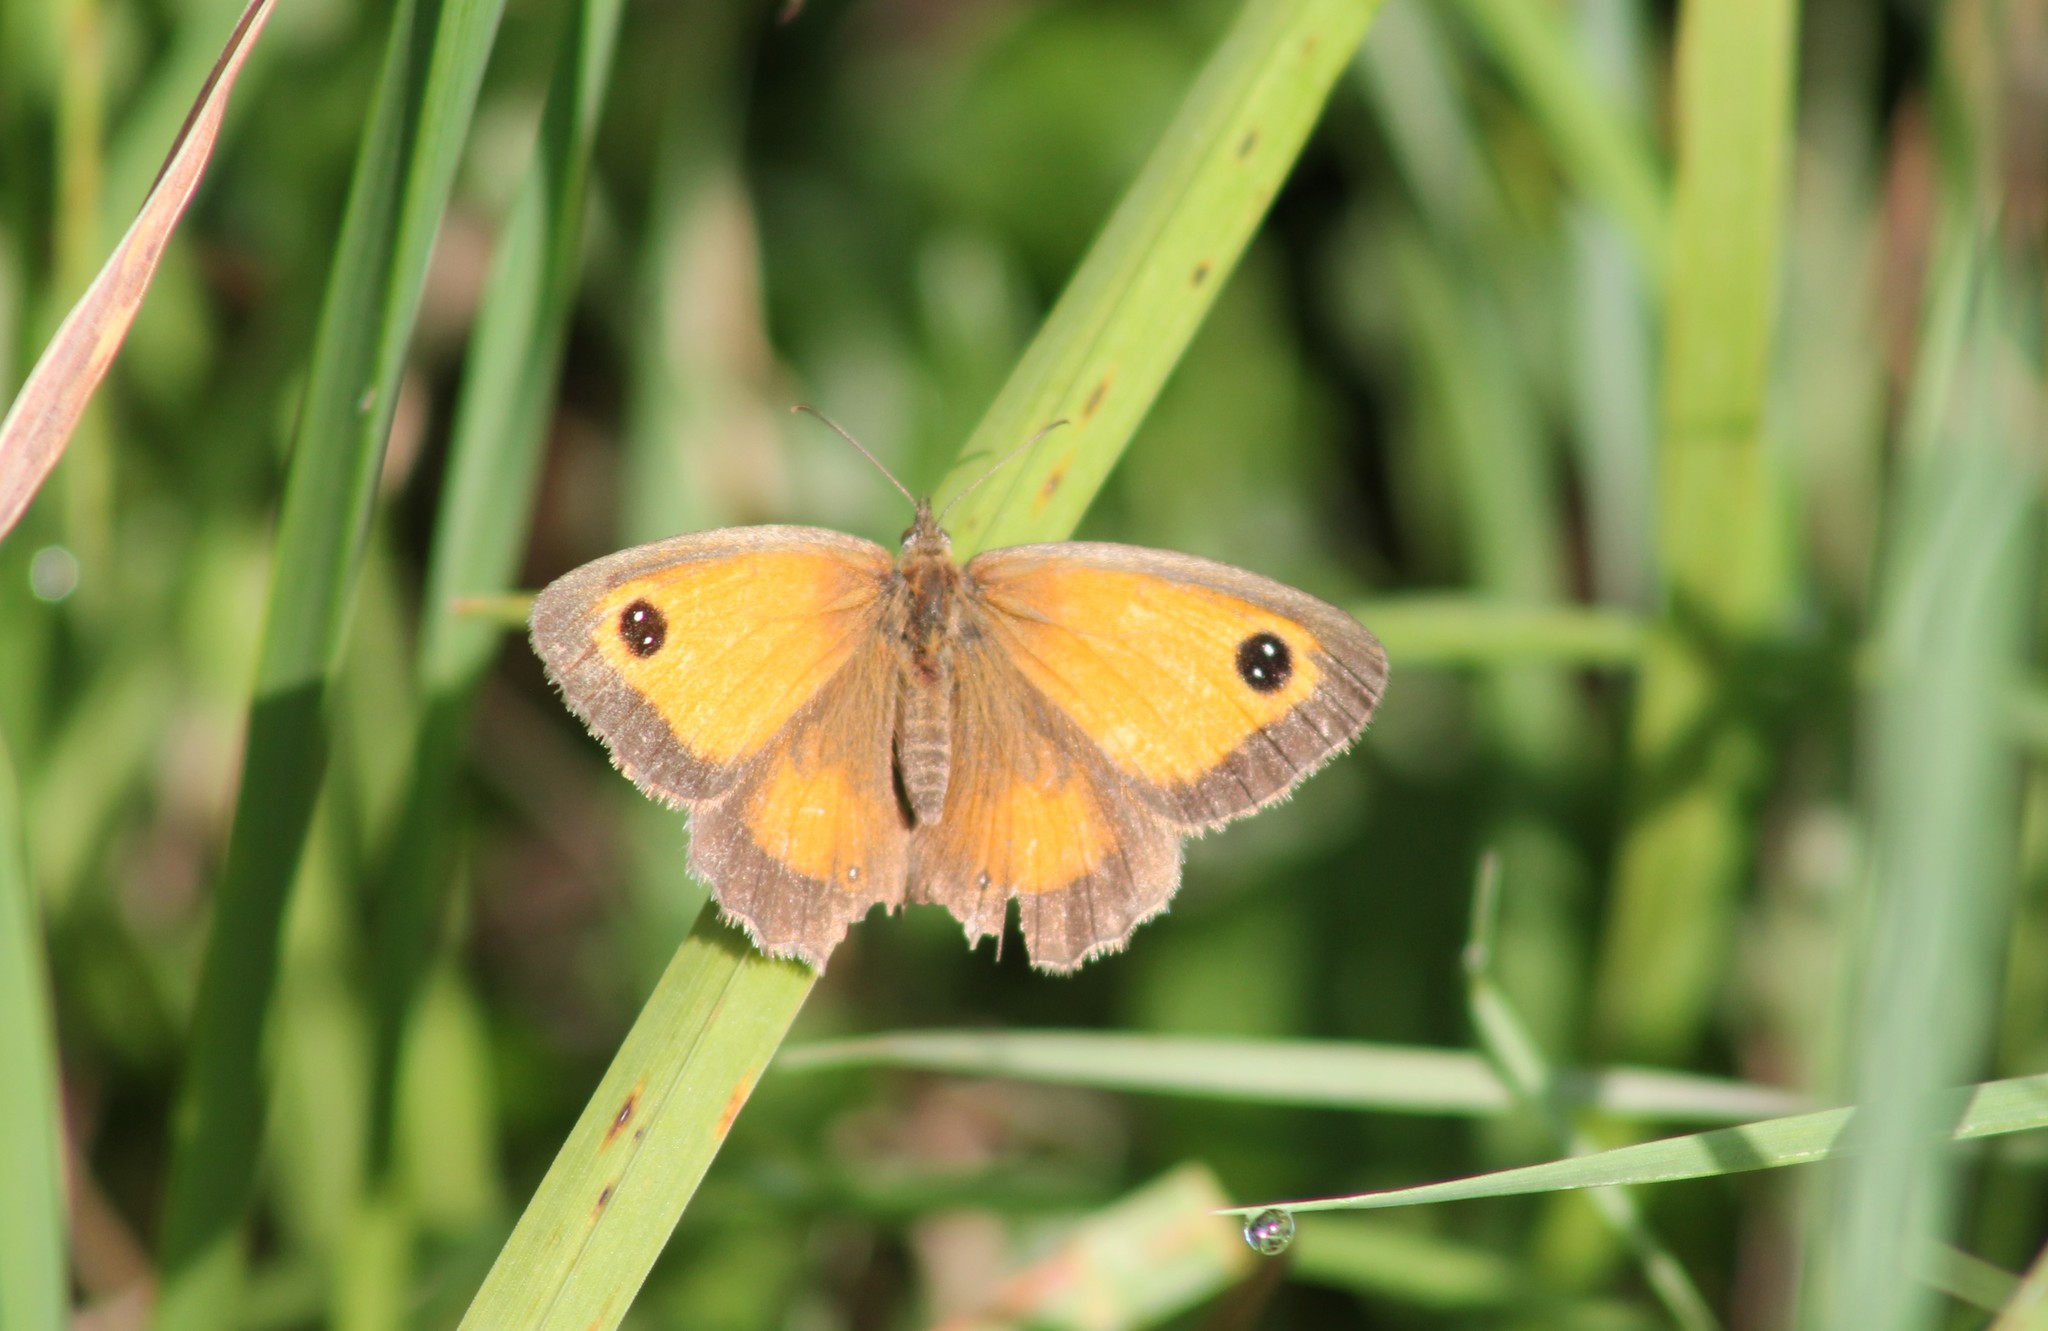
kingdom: Animalia
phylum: Arthropoda
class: Insecta
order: Lepidoptera
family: Nymphalidae
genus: Pyronia
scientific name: Pyronia tithonus
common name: Gatekeeper
